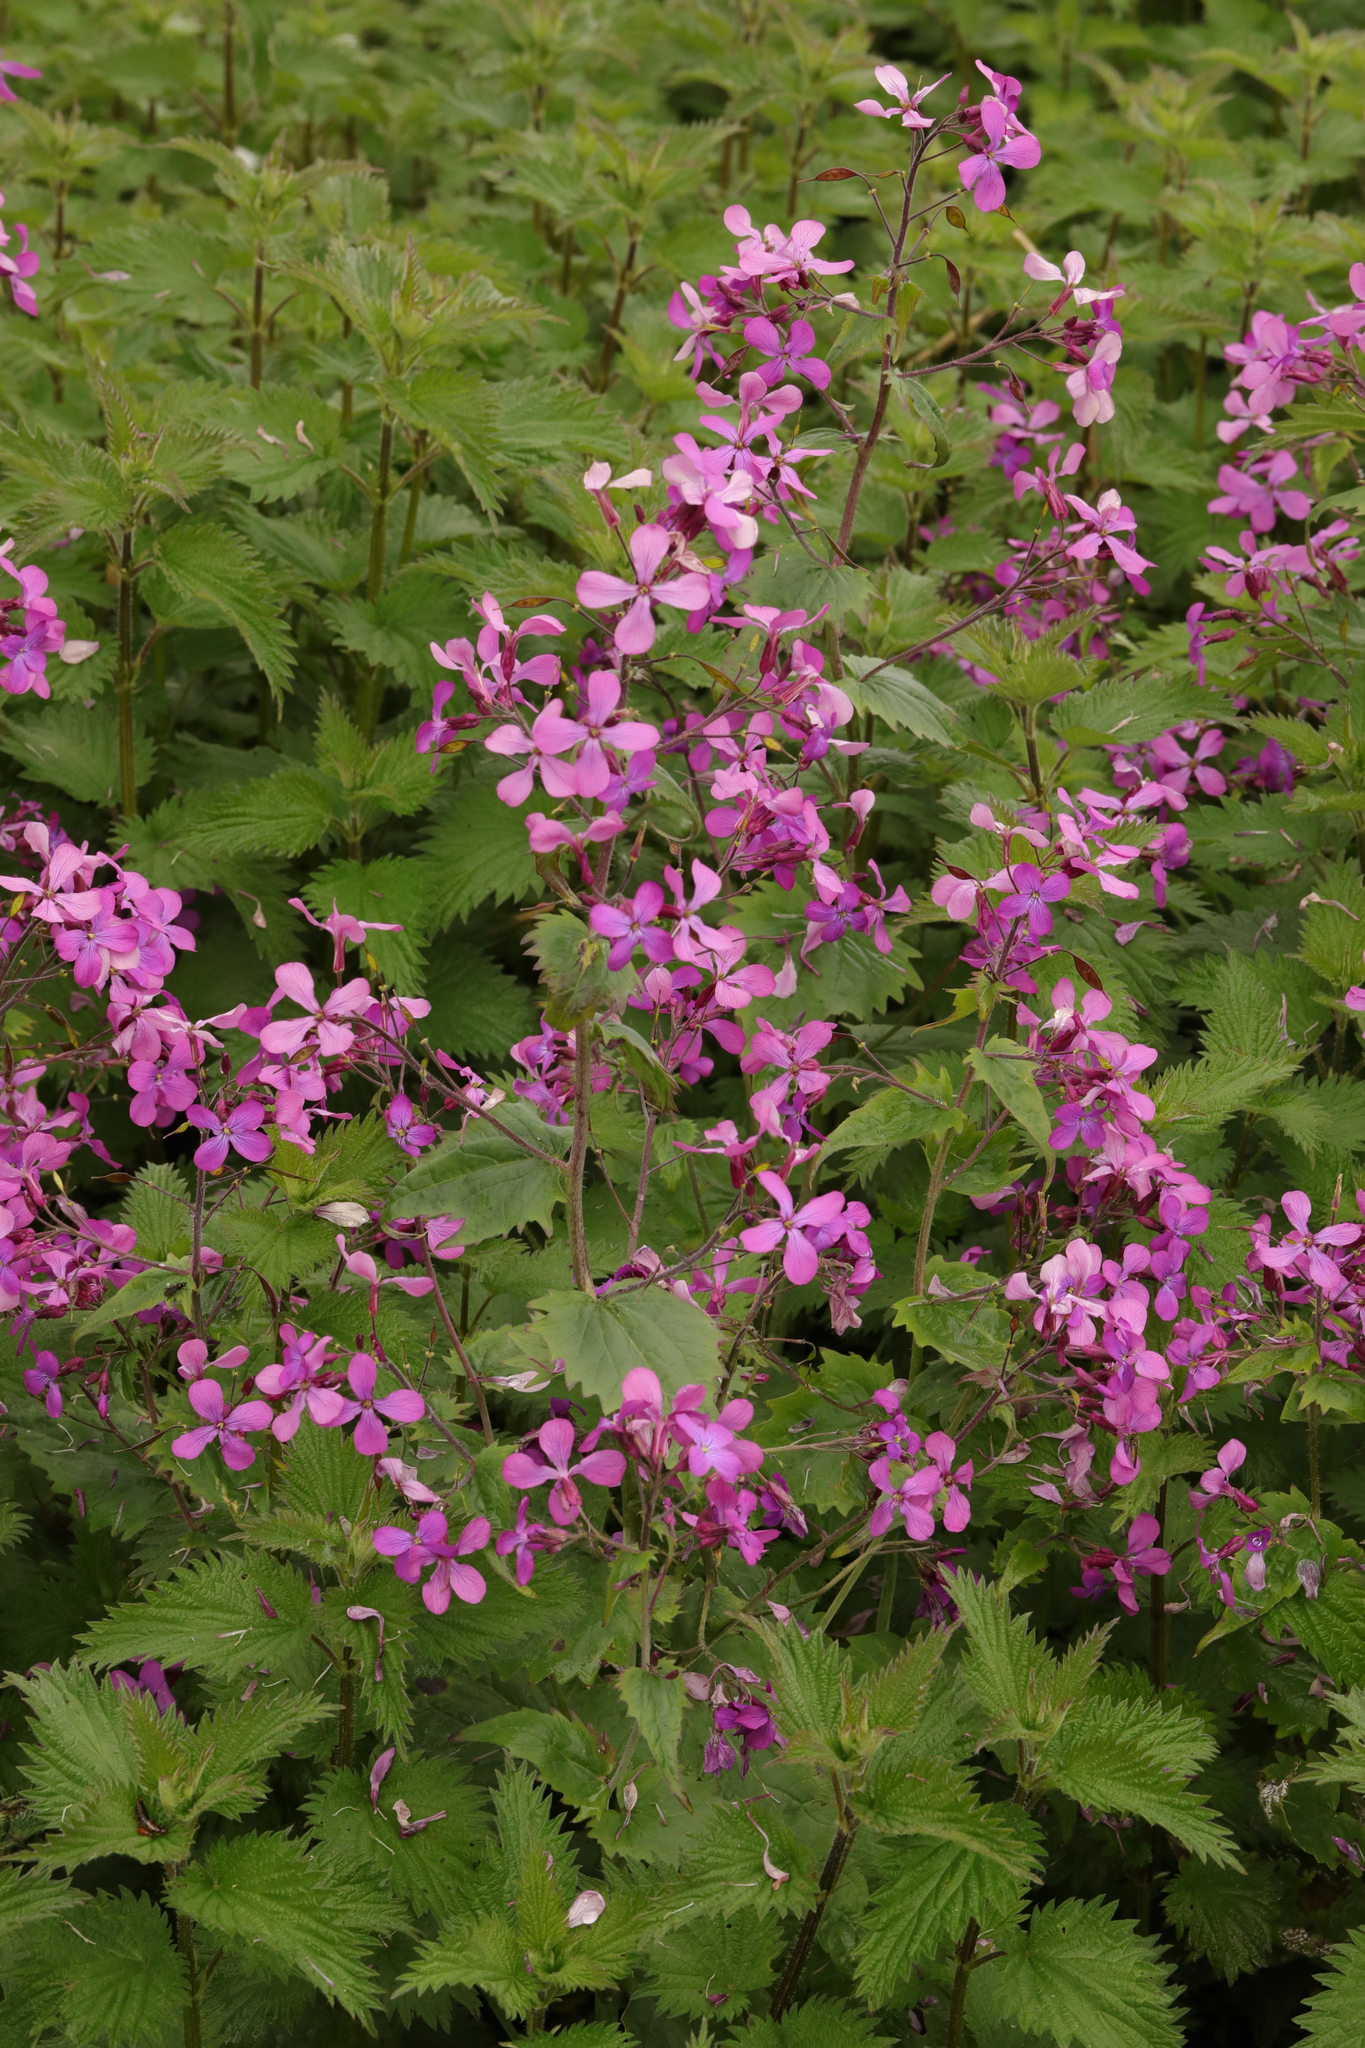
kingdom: Plantae
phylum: Tracheophyta
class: Magnoliopsida
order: Brassicales
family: Brassicaceae
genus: Lunaria
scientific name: Lunaria annua
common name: Honesty
